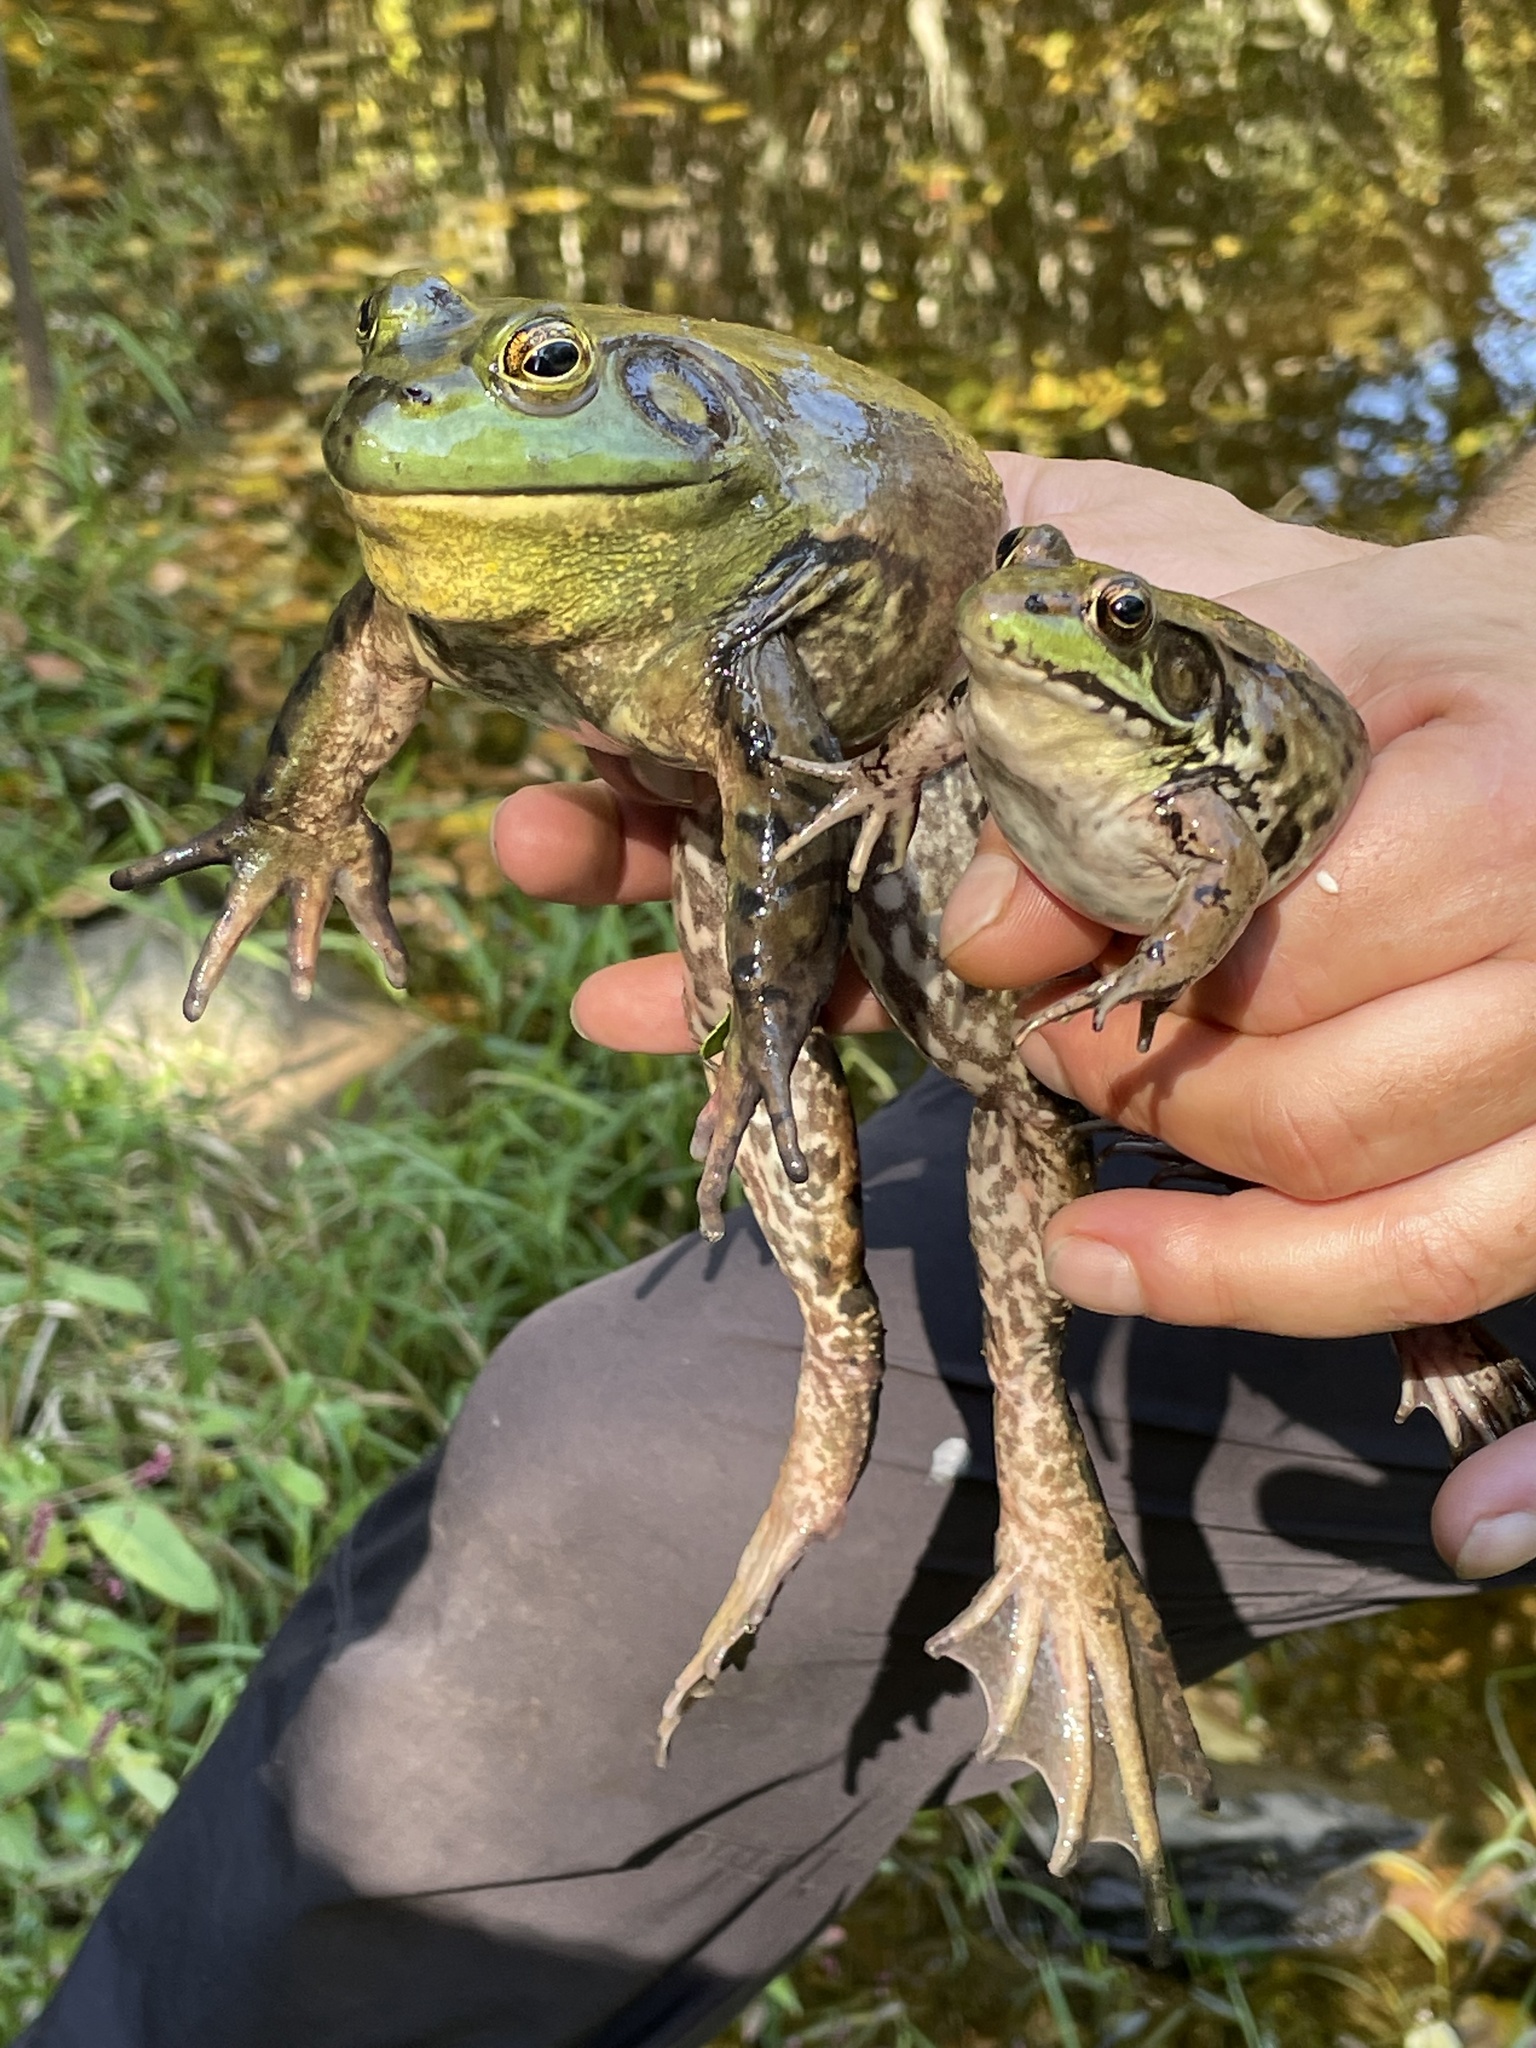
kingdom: Animalia
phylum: Chordata
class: Amphibia
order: Anura
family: Ranidae
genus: Lithobates
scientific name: Lithobates clamitans
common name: Green frog
